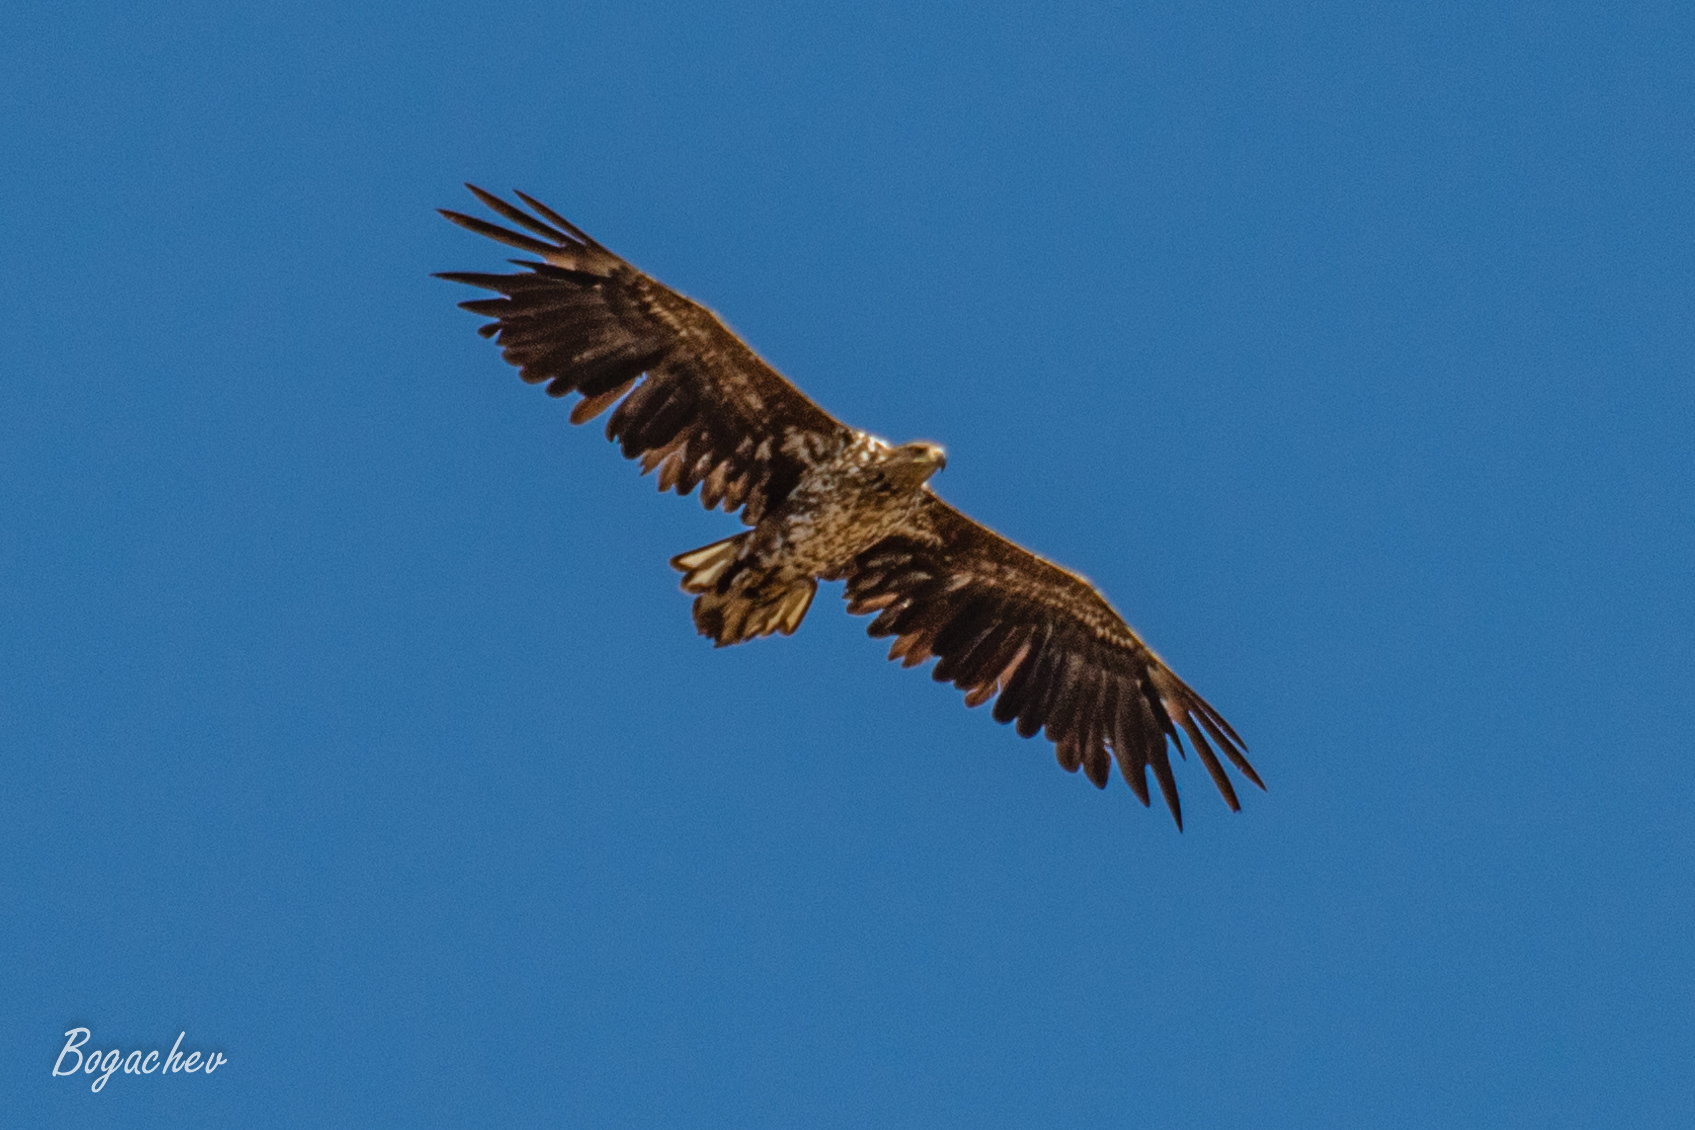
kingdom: Animalia
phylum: Chordata
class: Aves
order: Accipitriformes
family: Accipitridae
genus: Haliaeetus
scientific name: Haliaeetus albicilla
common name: White-tailed eagle
